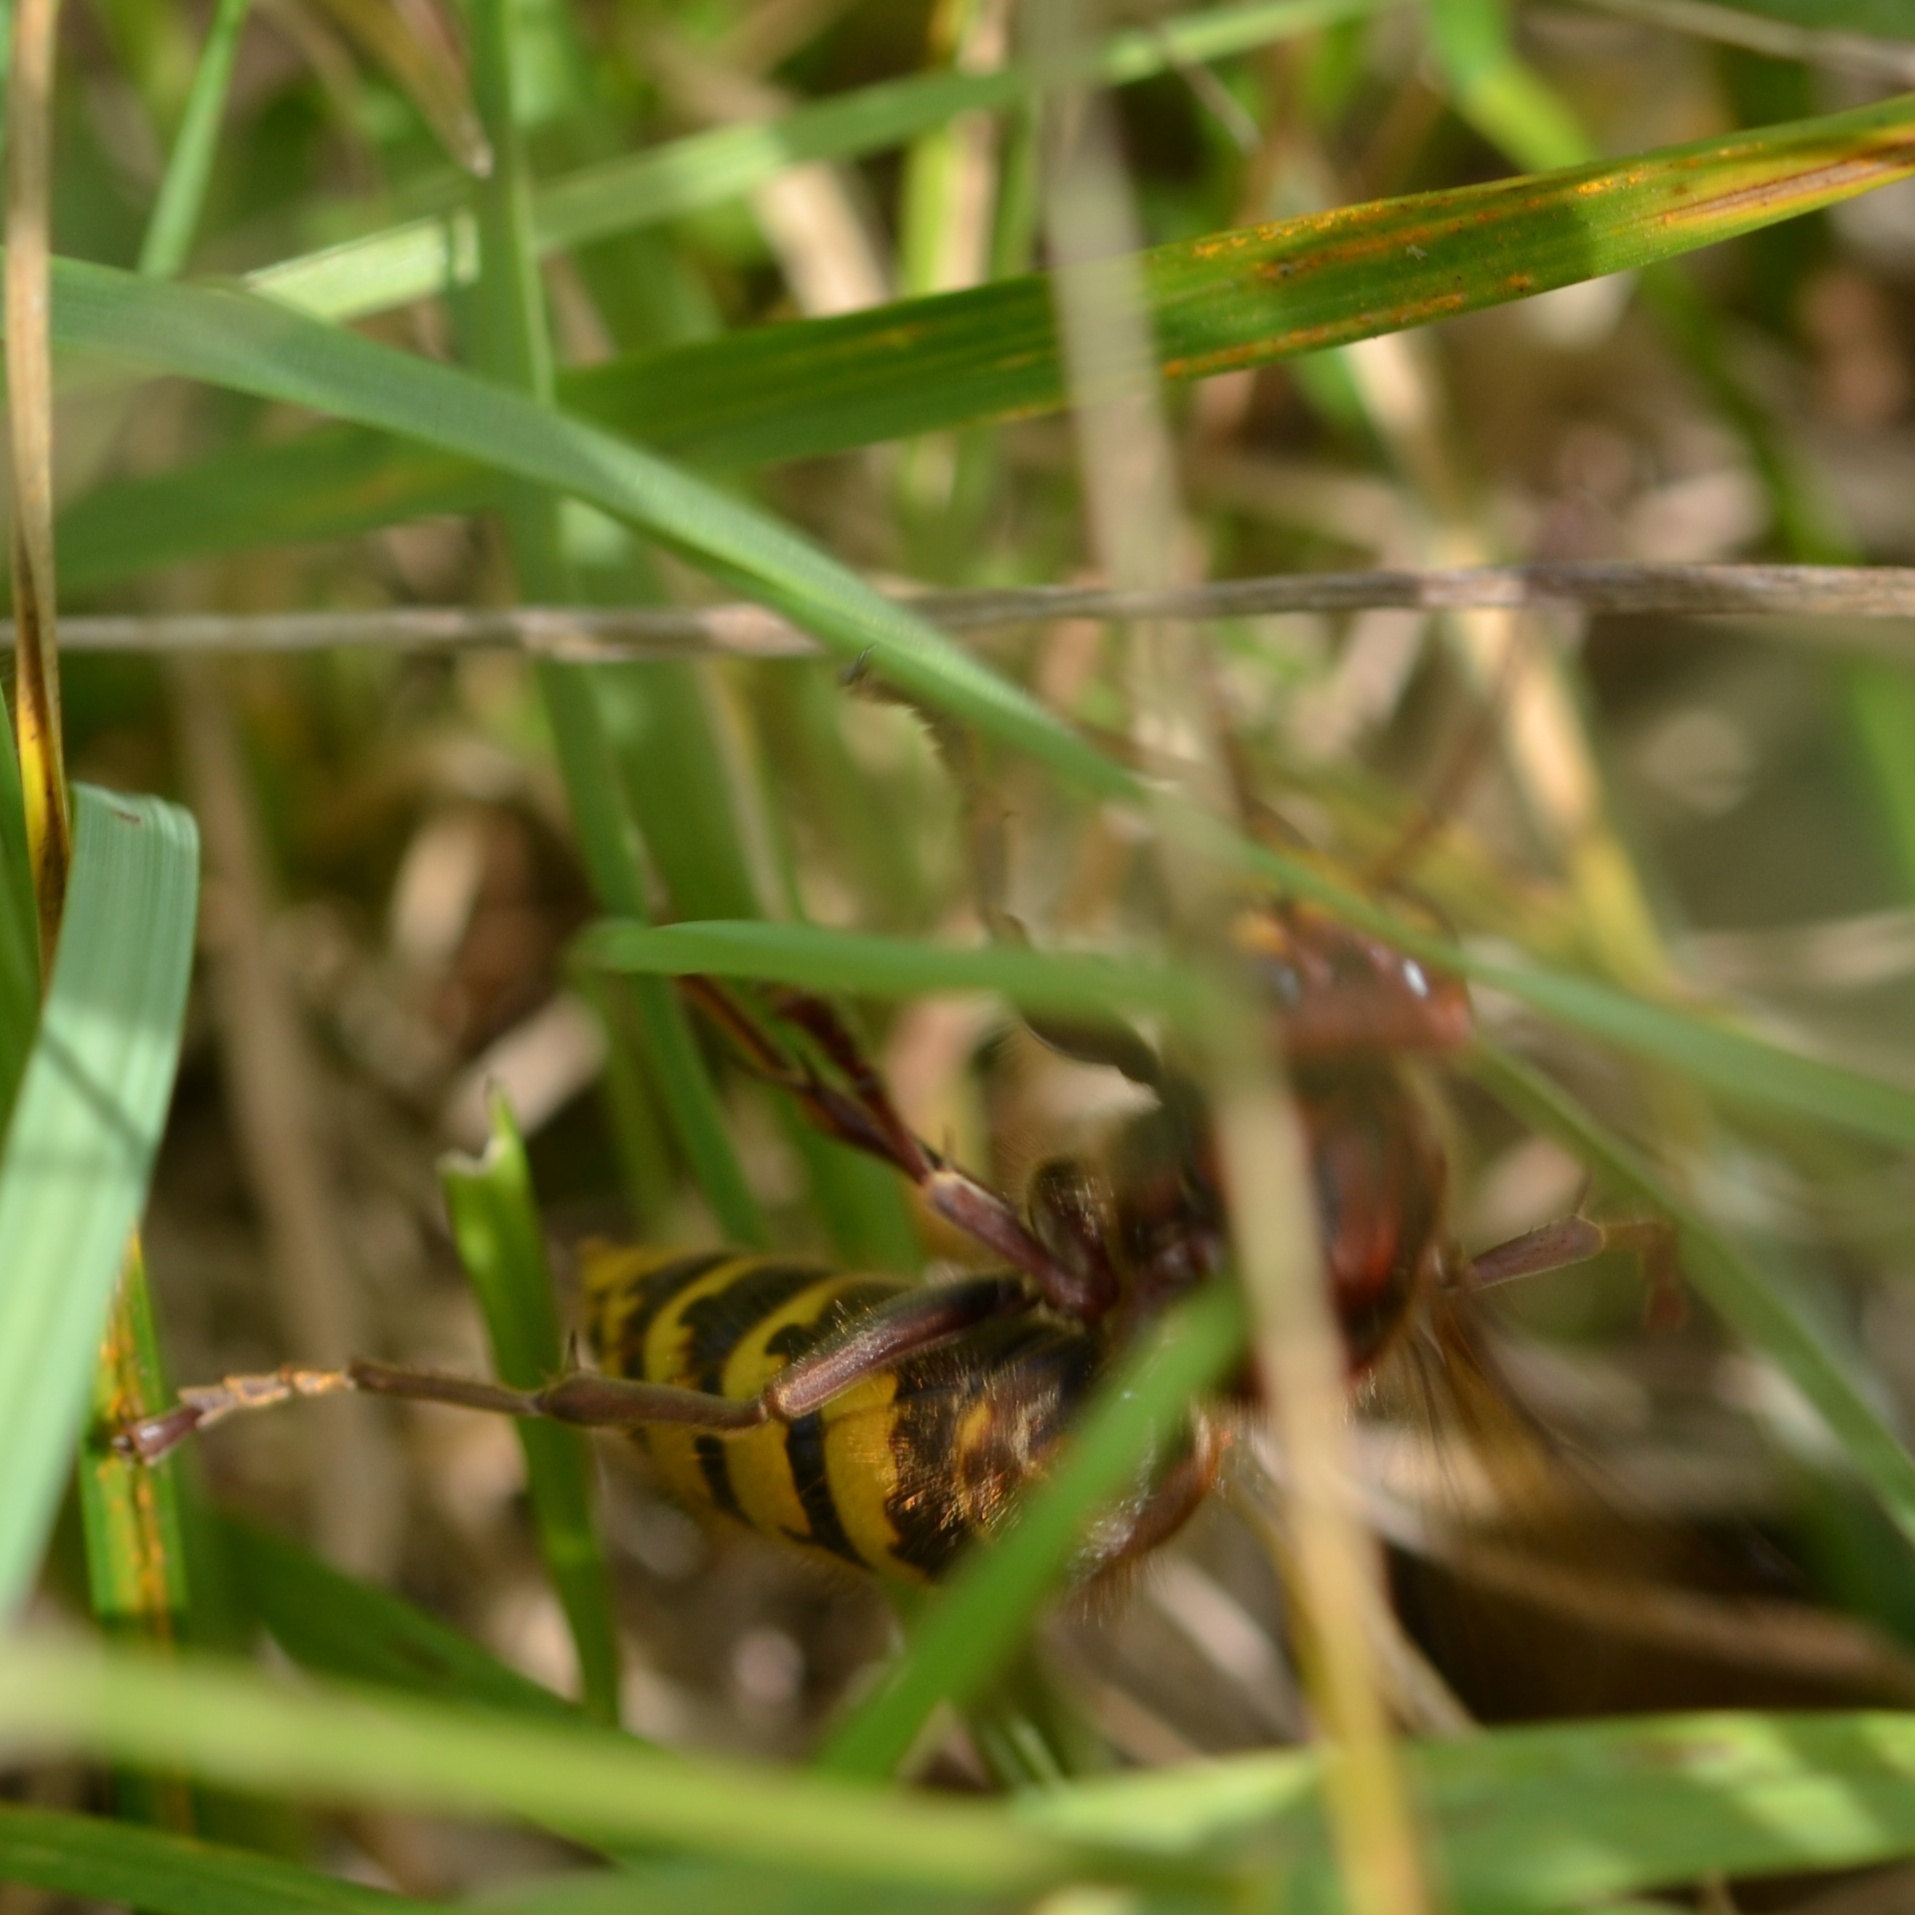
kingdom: Animalia
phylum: Arthropoda
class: Insecta
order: Hymenoptera
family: Vespidae
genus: Vespa
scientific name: Vespa crabro
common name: Hornet
